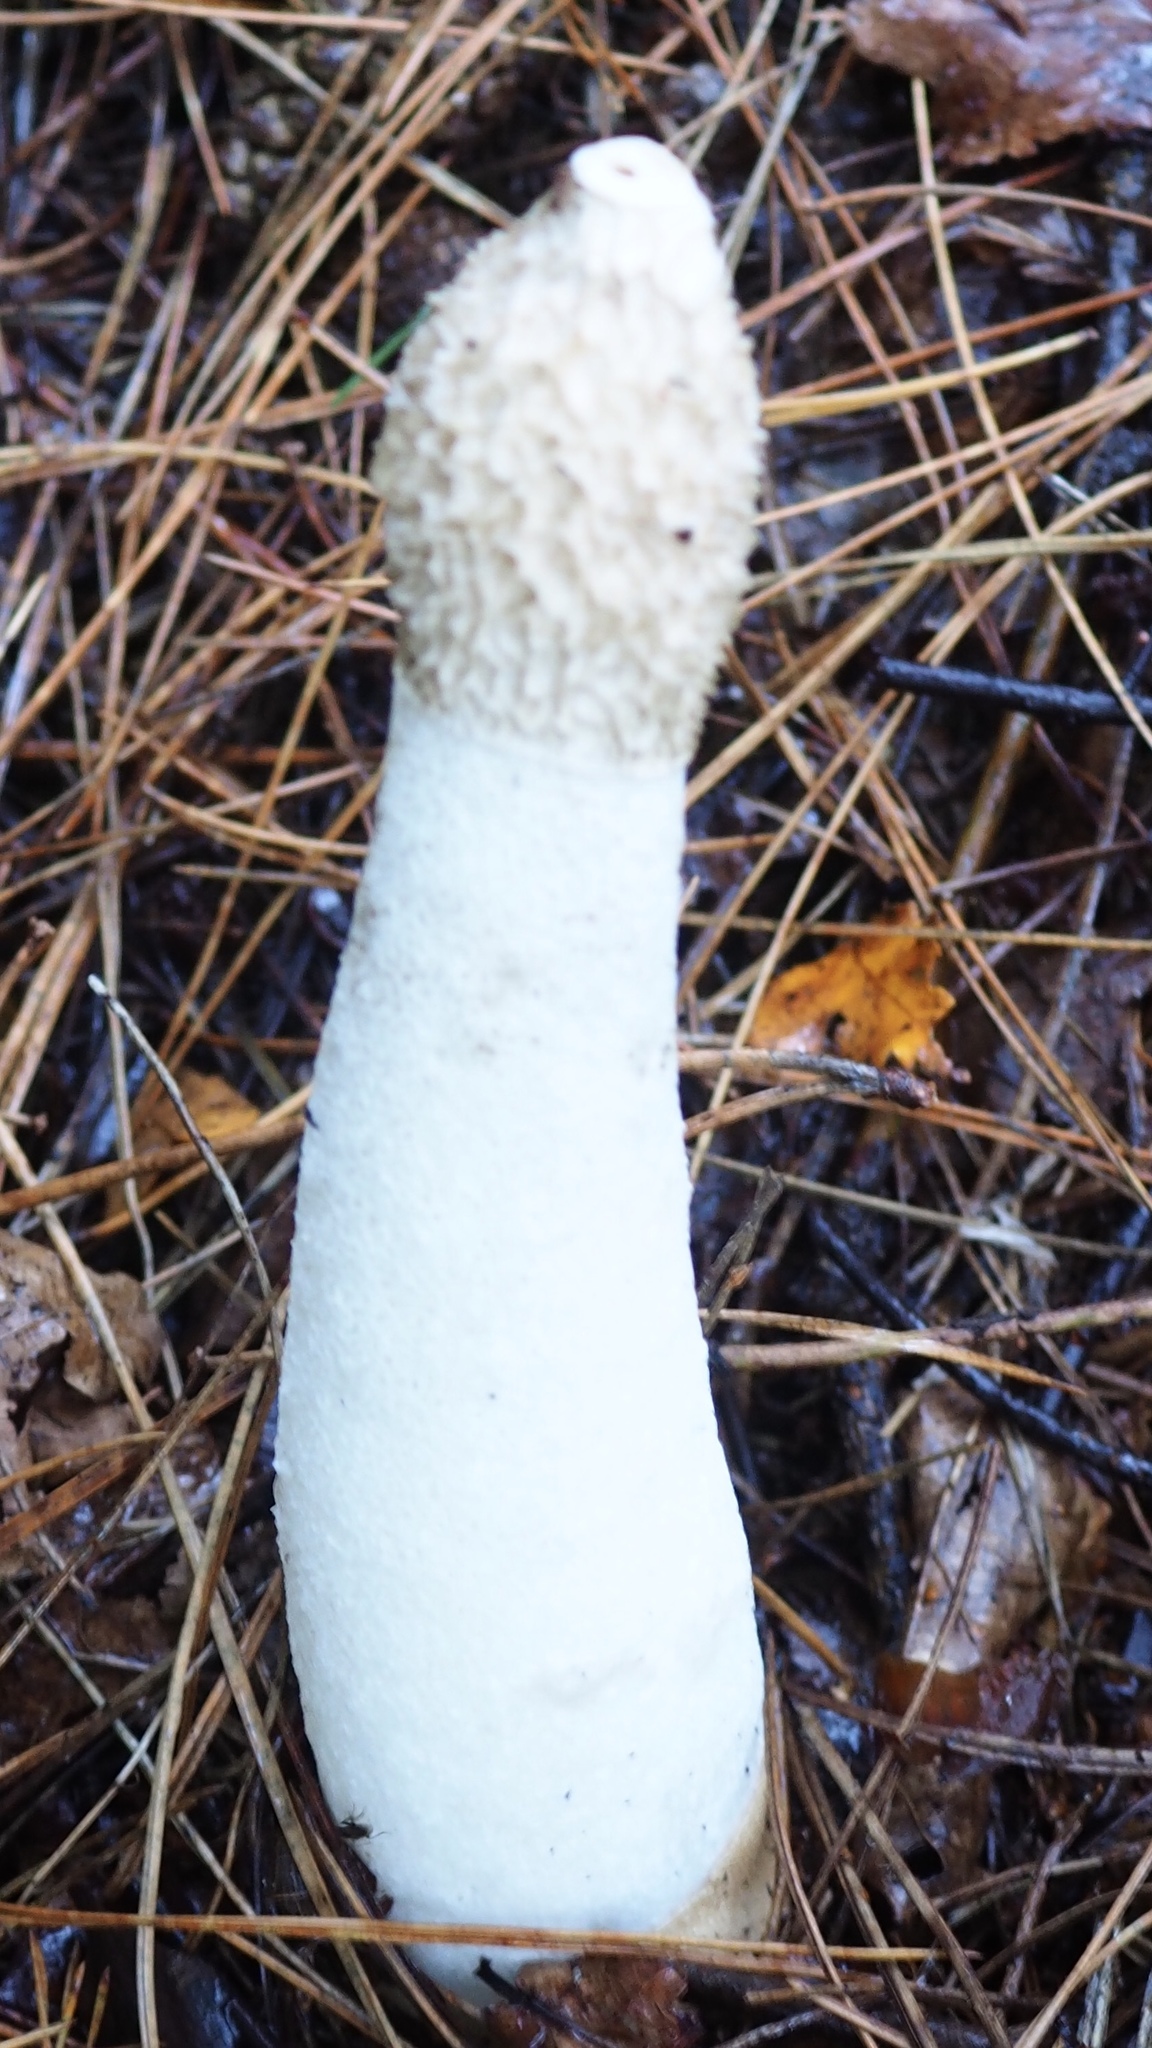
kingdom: Fungi
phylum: Basidiomycota
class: Agaricomycetes
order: Phallales
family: Phallaceae
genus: Phallus
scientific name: Phallus impudicus
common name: Common stinkhorn
